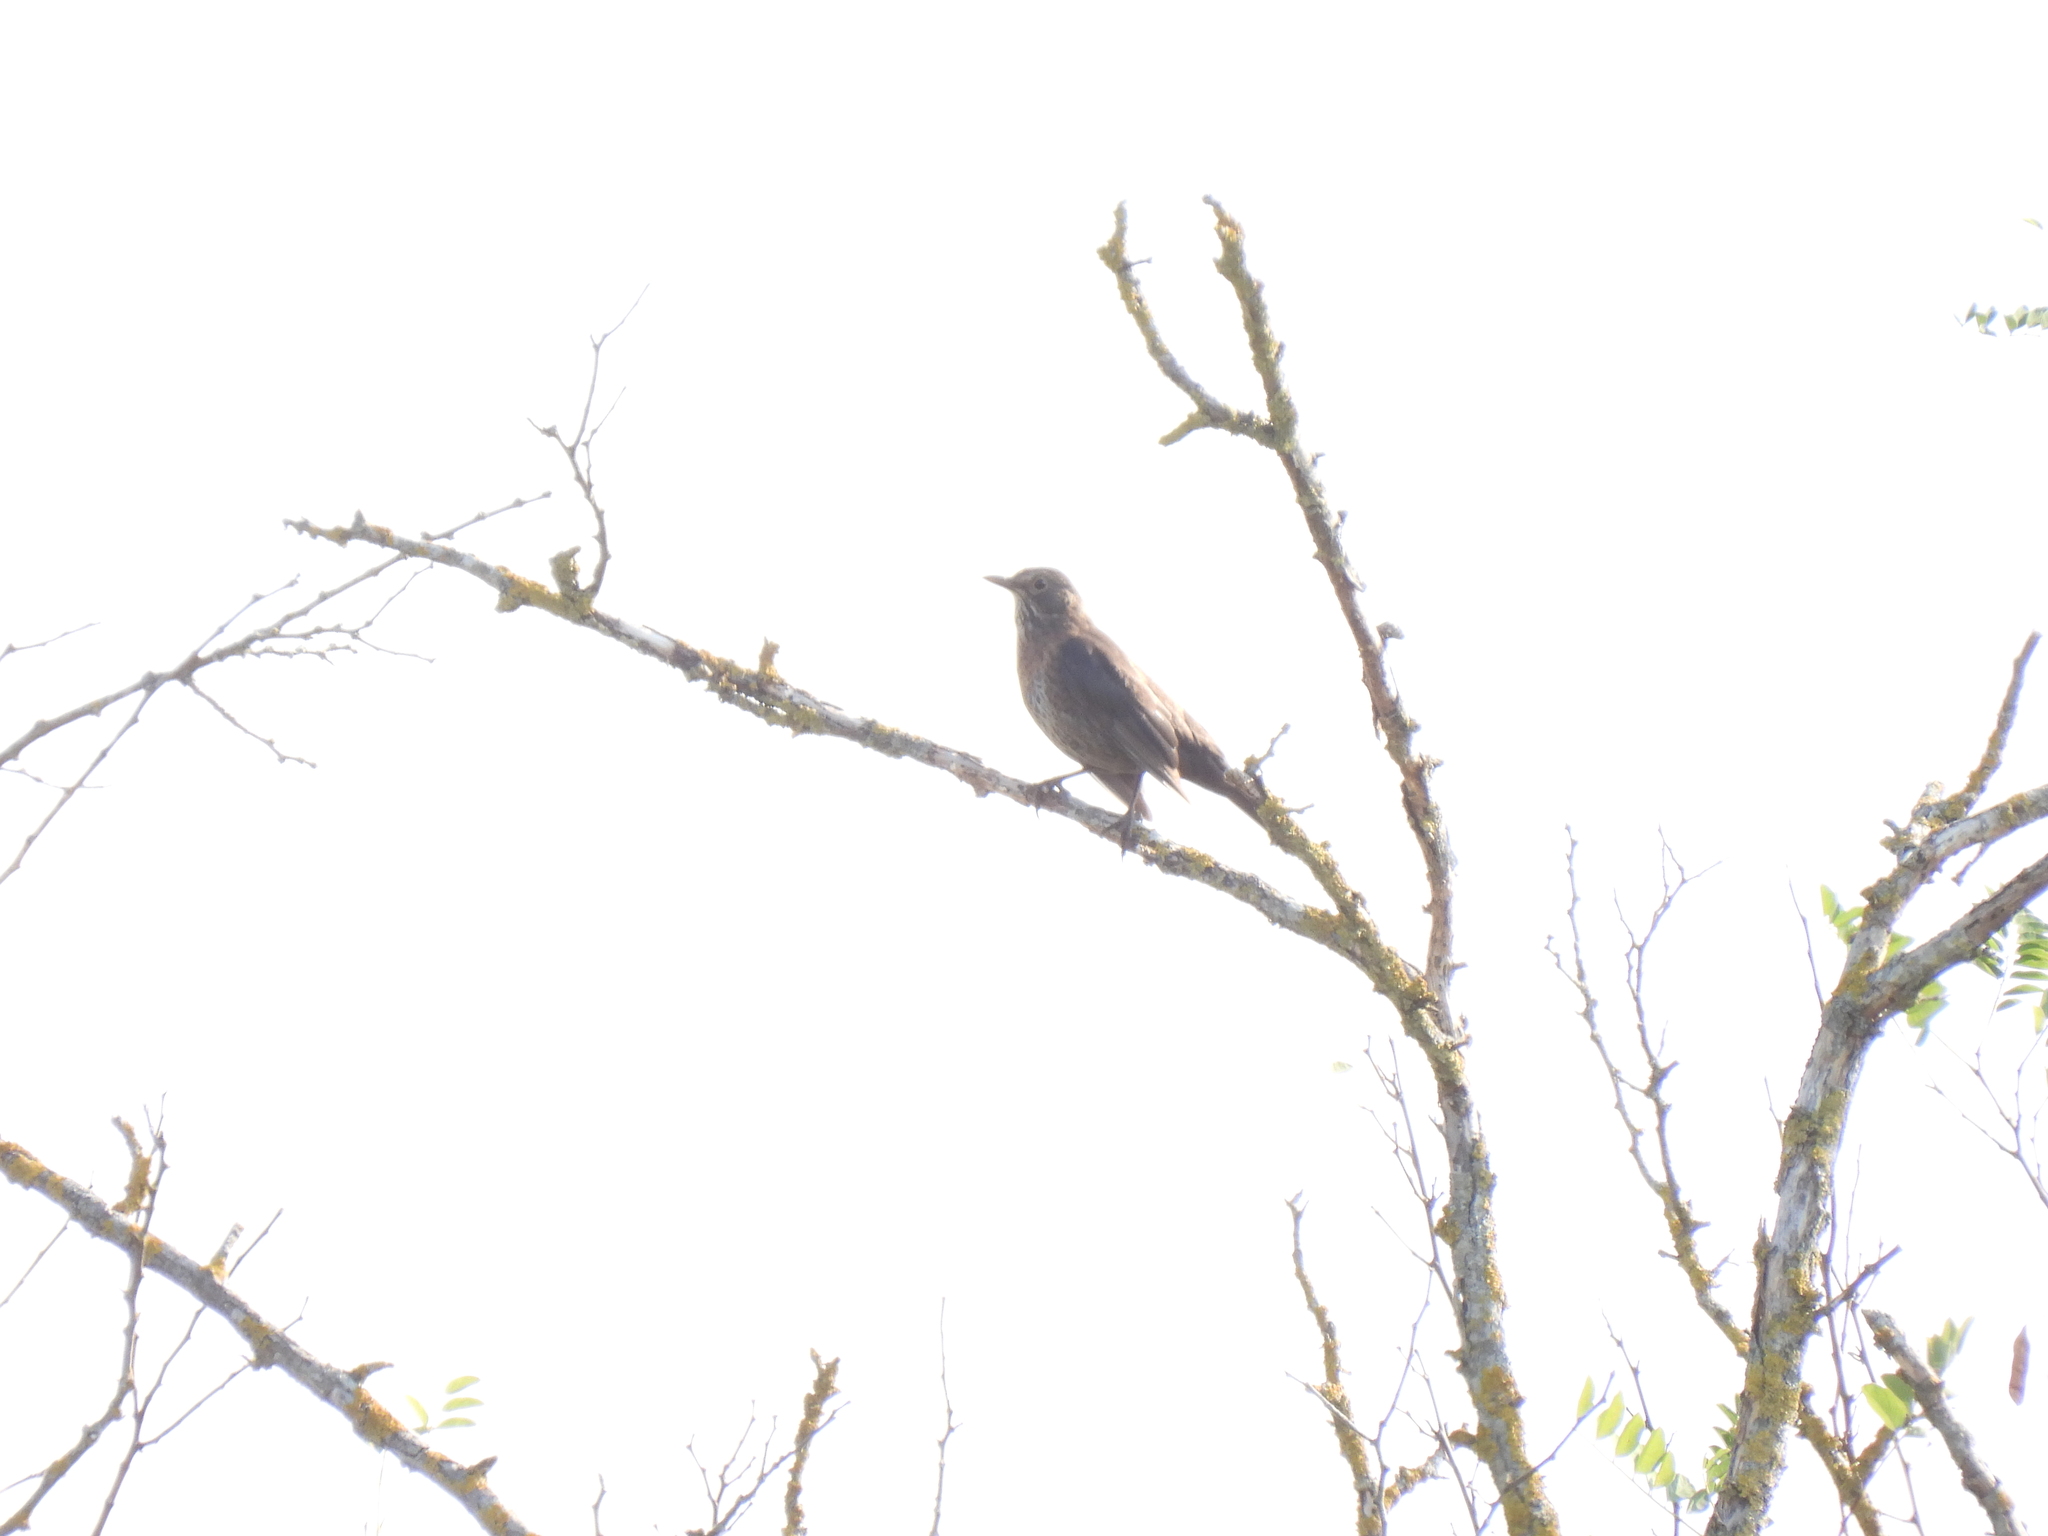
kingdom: Animalia
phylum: Chordata
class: Aves
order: Passeriformes
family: Turdidae
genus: Turdus
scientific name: Turdus merula
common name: Common blackbird
